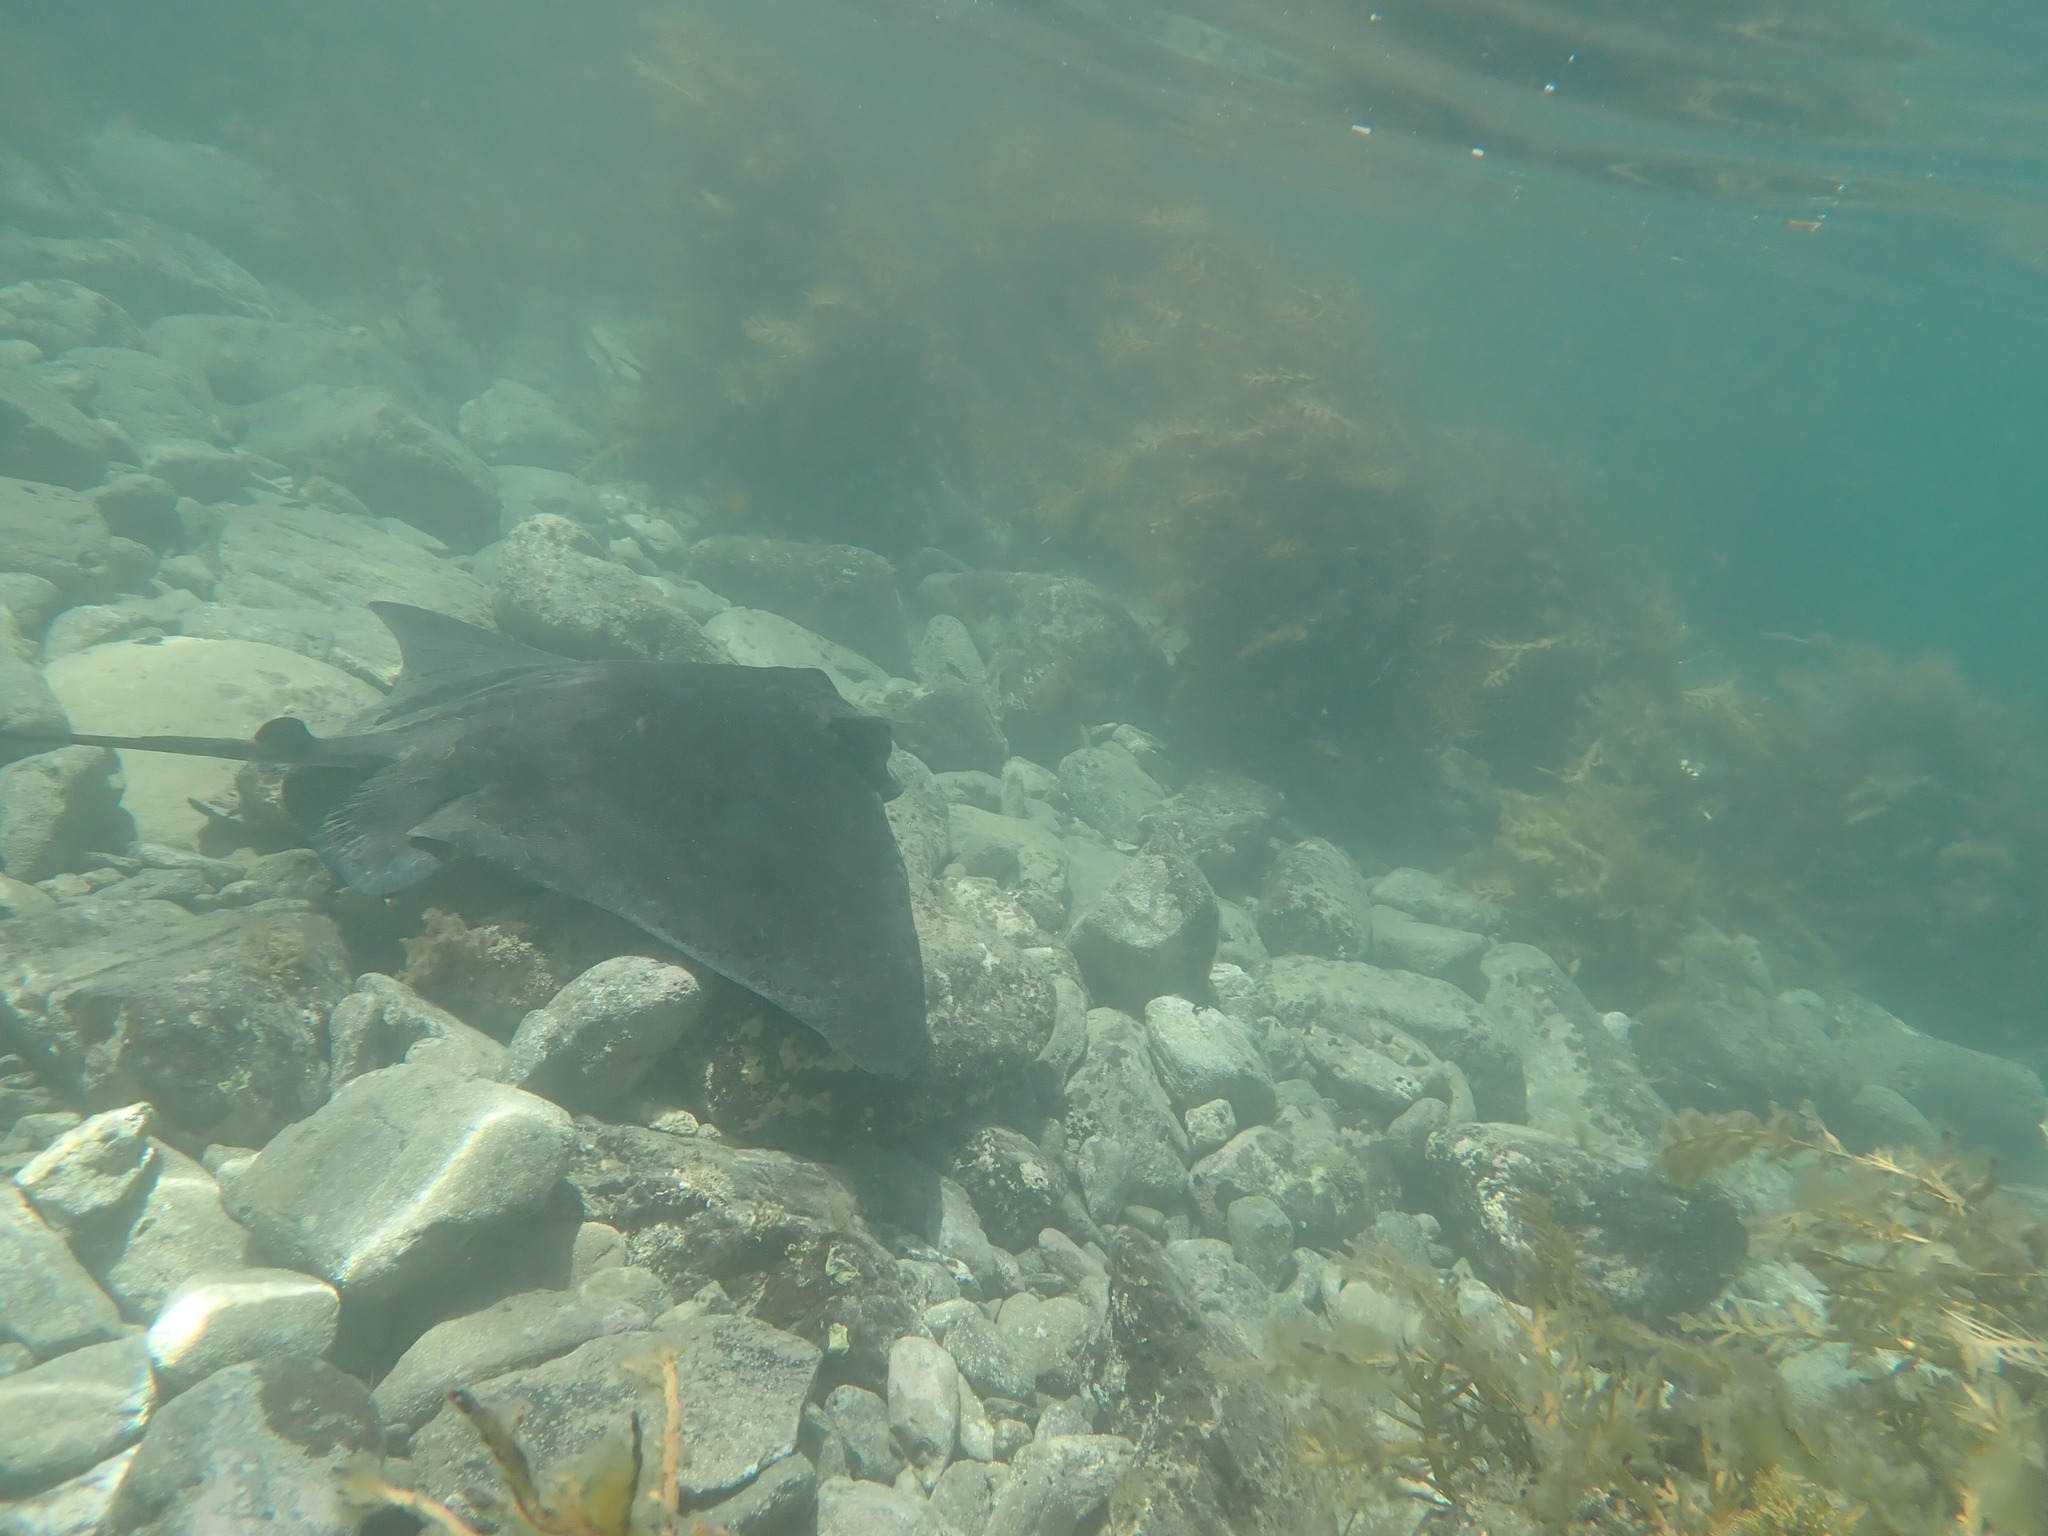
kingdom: Animalia
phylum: Chordata
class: Elasmobranchii
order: Myliobatiformes
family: Myliobatidae
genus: Myliobatis
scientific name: Myliobatis tenuicaudatus
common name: Eagle ray
